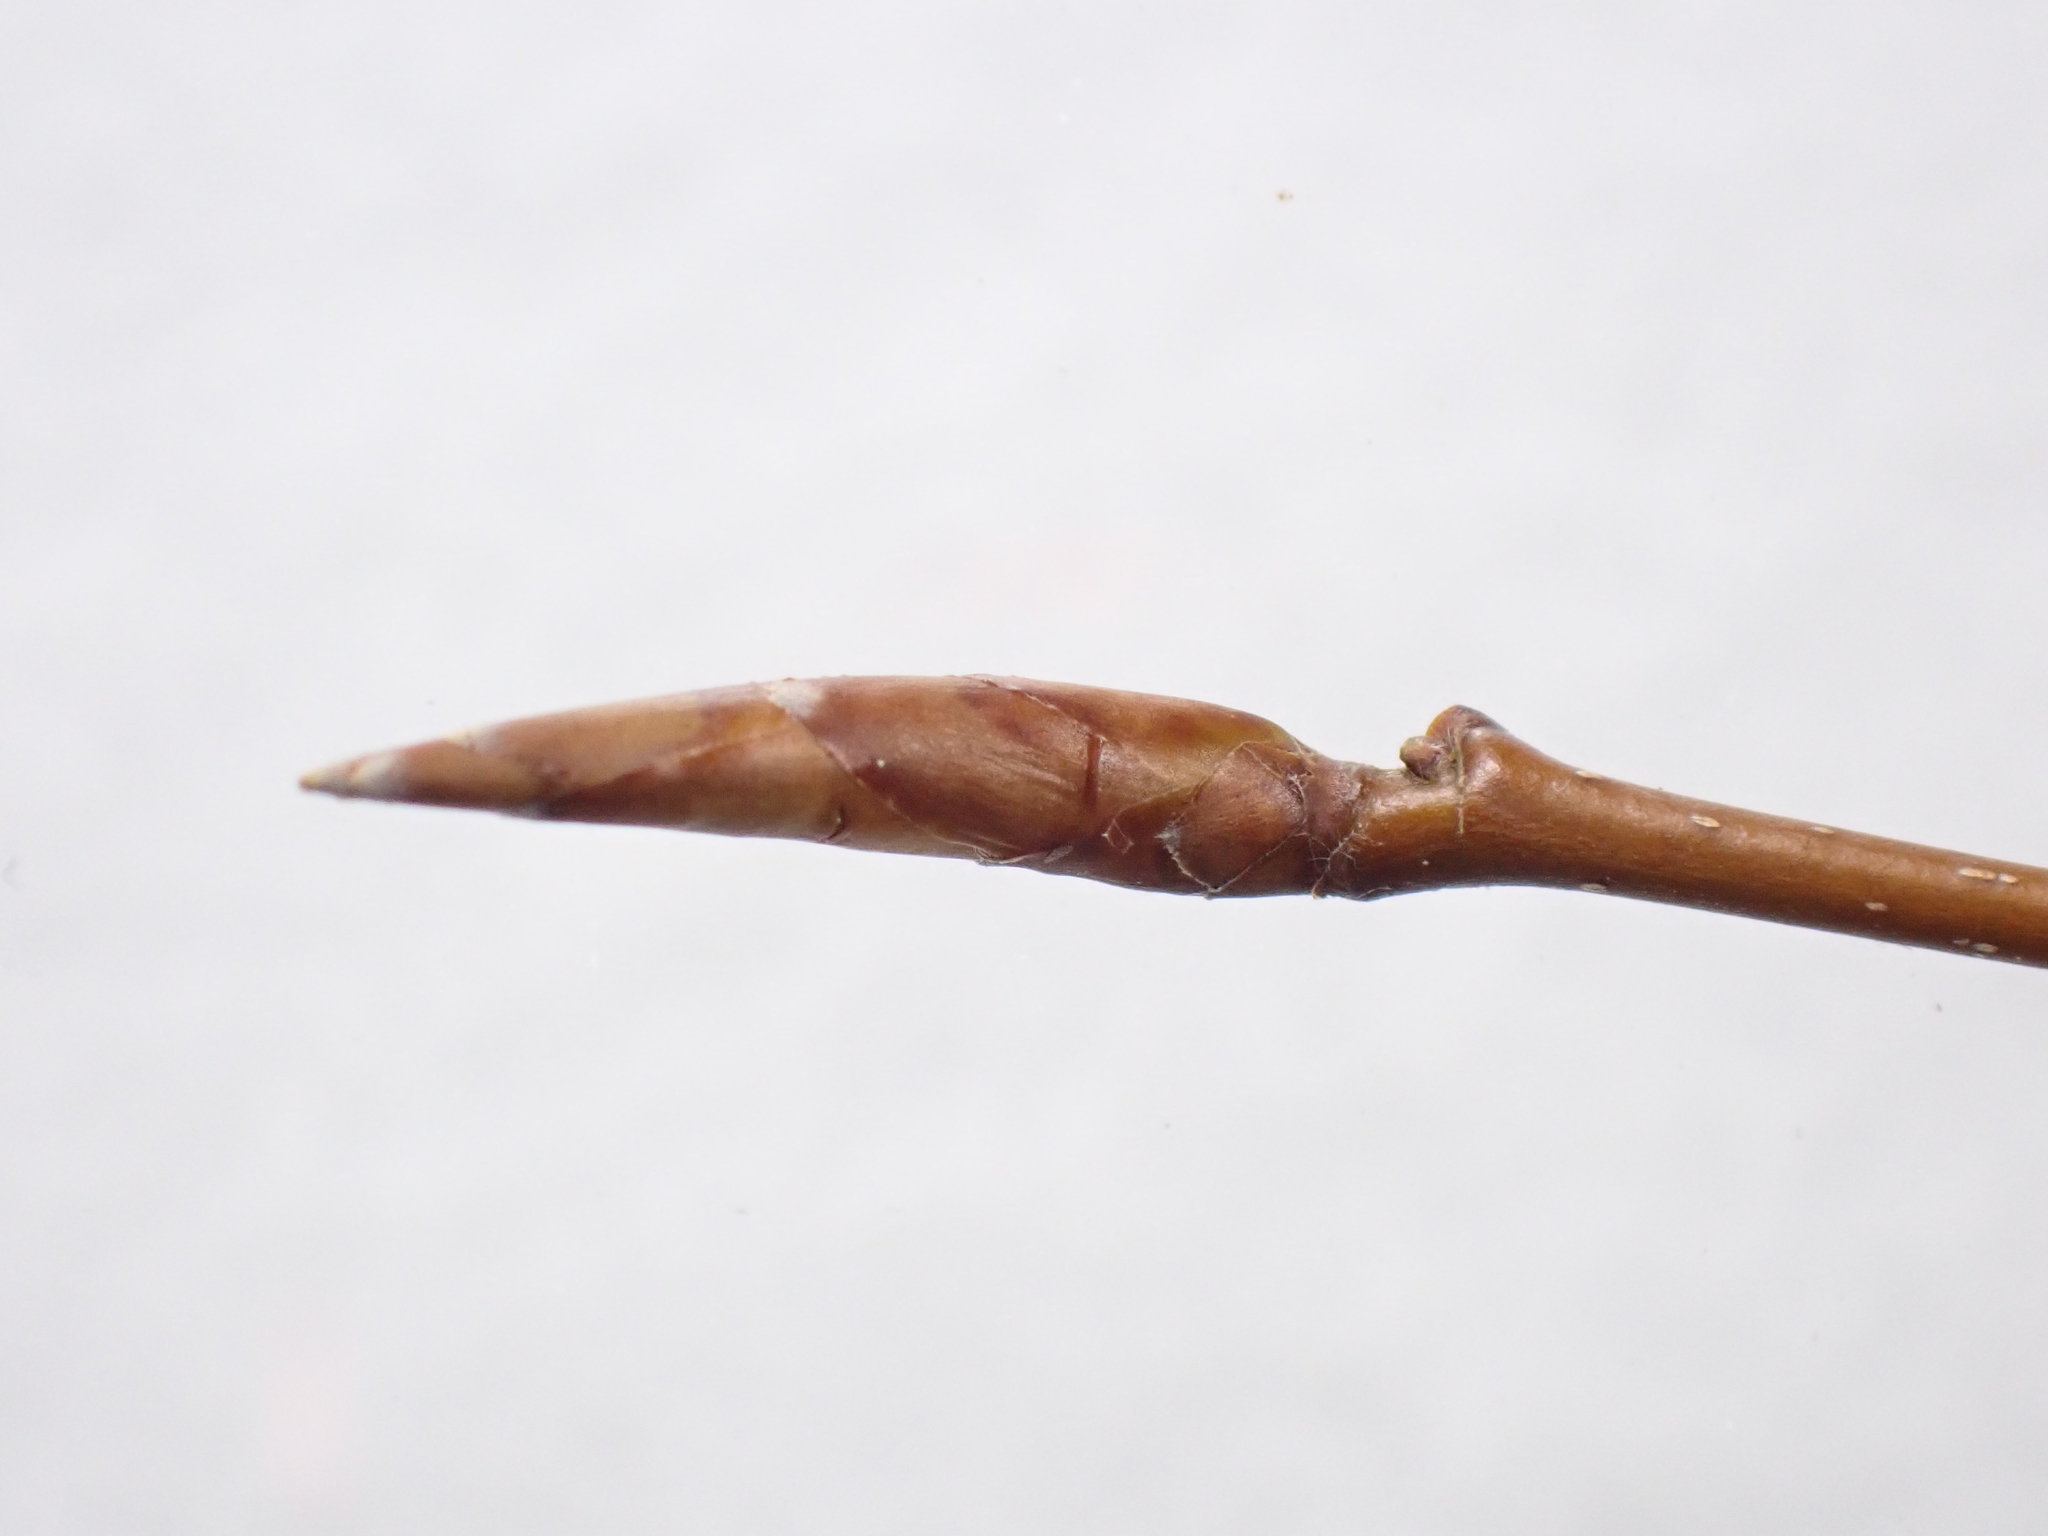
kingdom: Plantae
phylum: Tracheophyta
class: Magnoliopsida
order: Fagales
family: Fagaceae
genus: Fagus
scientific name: Fagus grandifolia
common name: American beech
